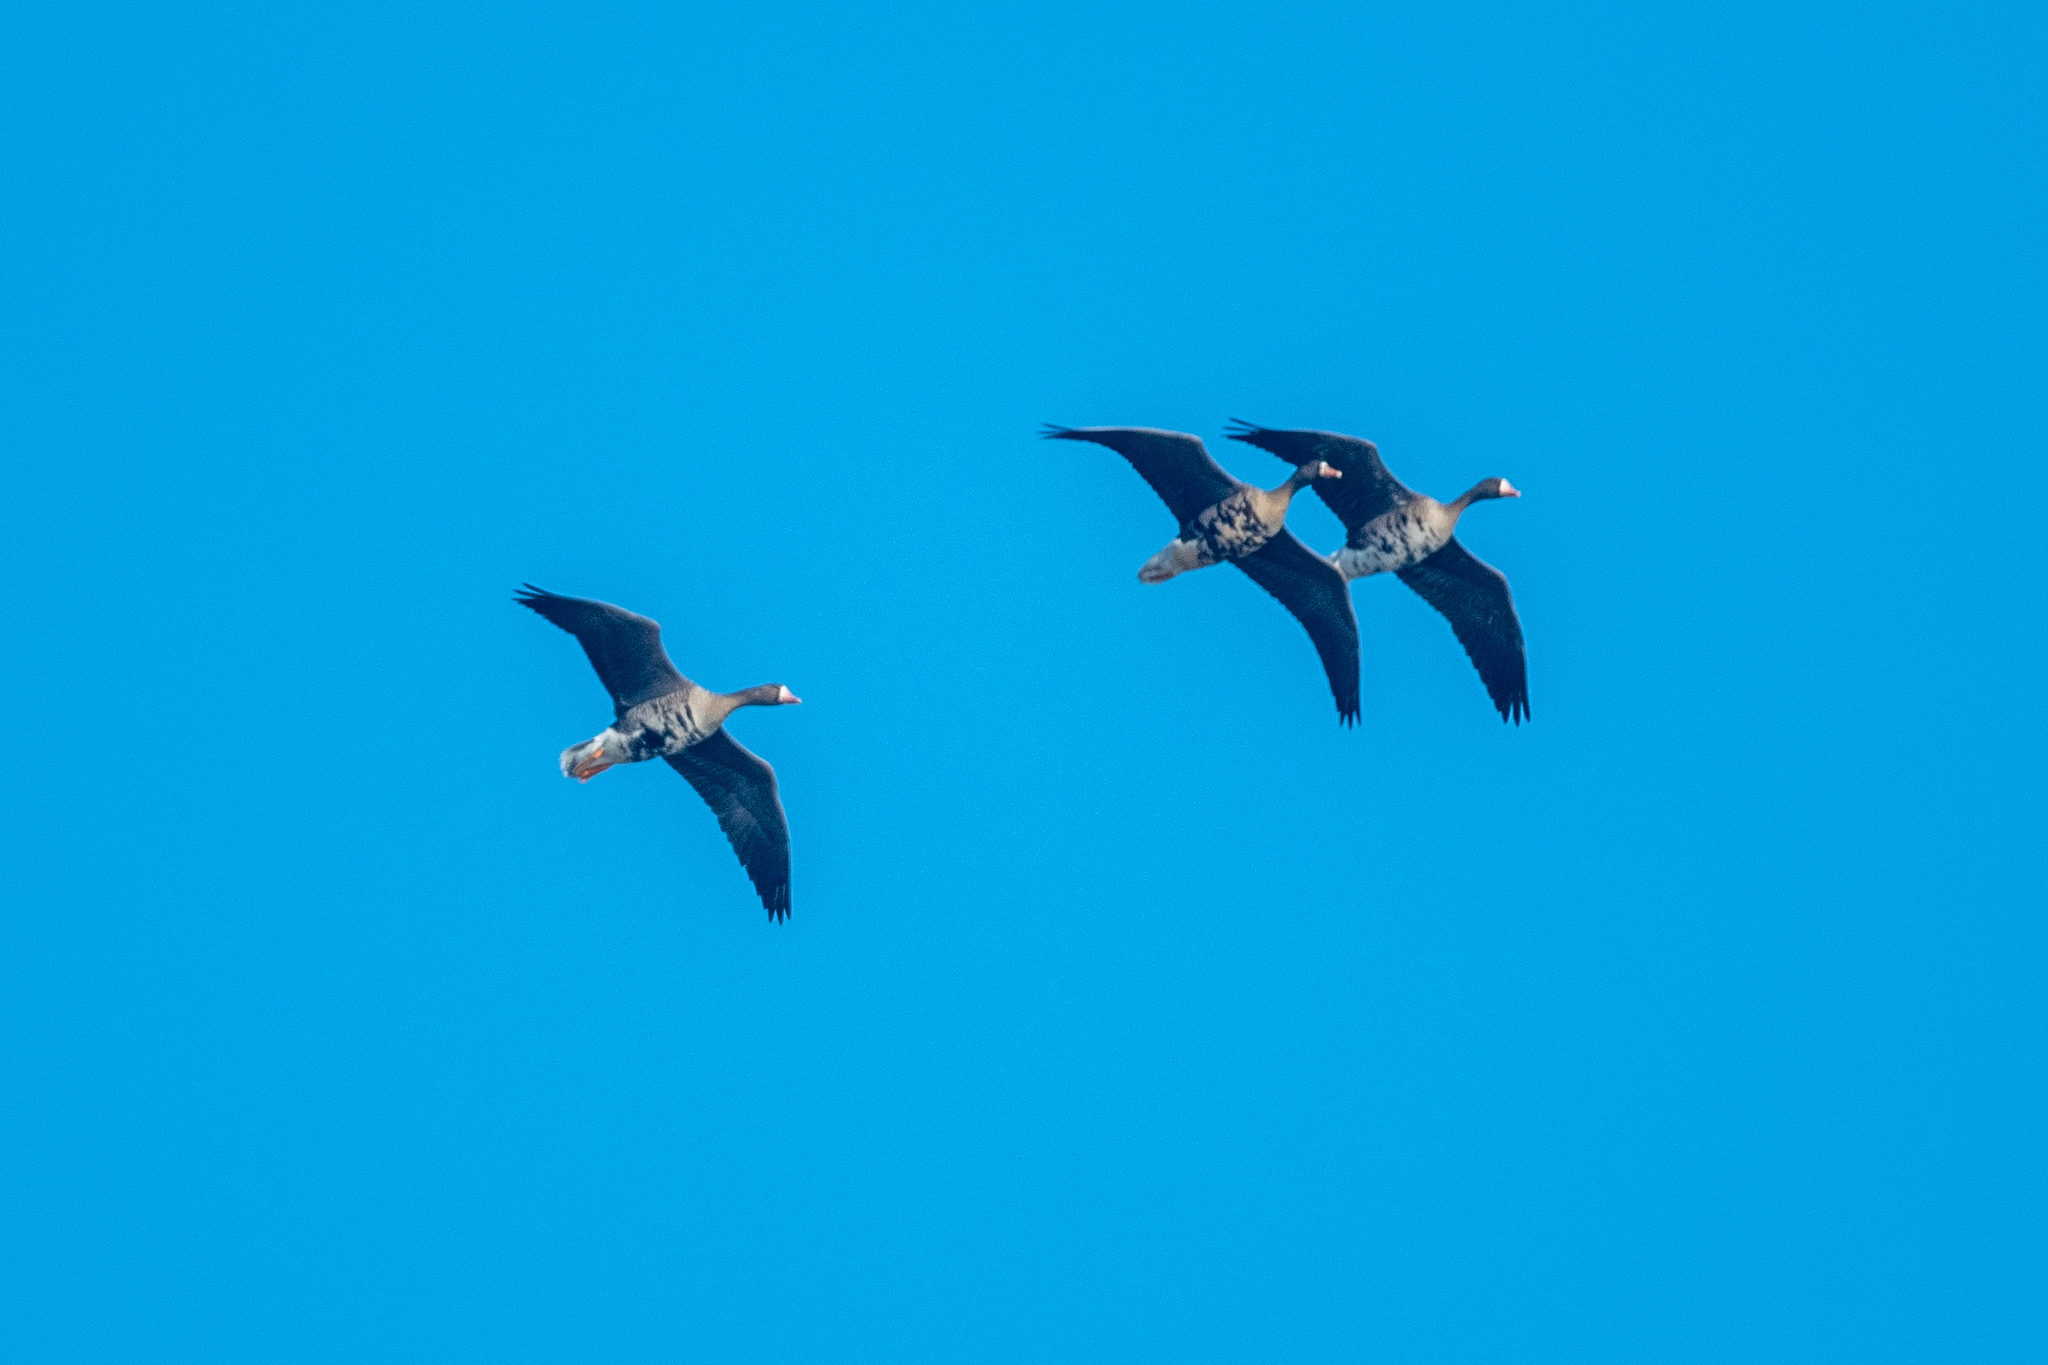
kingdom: Animalia
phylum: Chordata
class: Aves
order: Anseriformes
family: Anatidae
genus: Anser
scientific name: Anser albifrons
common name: Greater white-fronted goose
